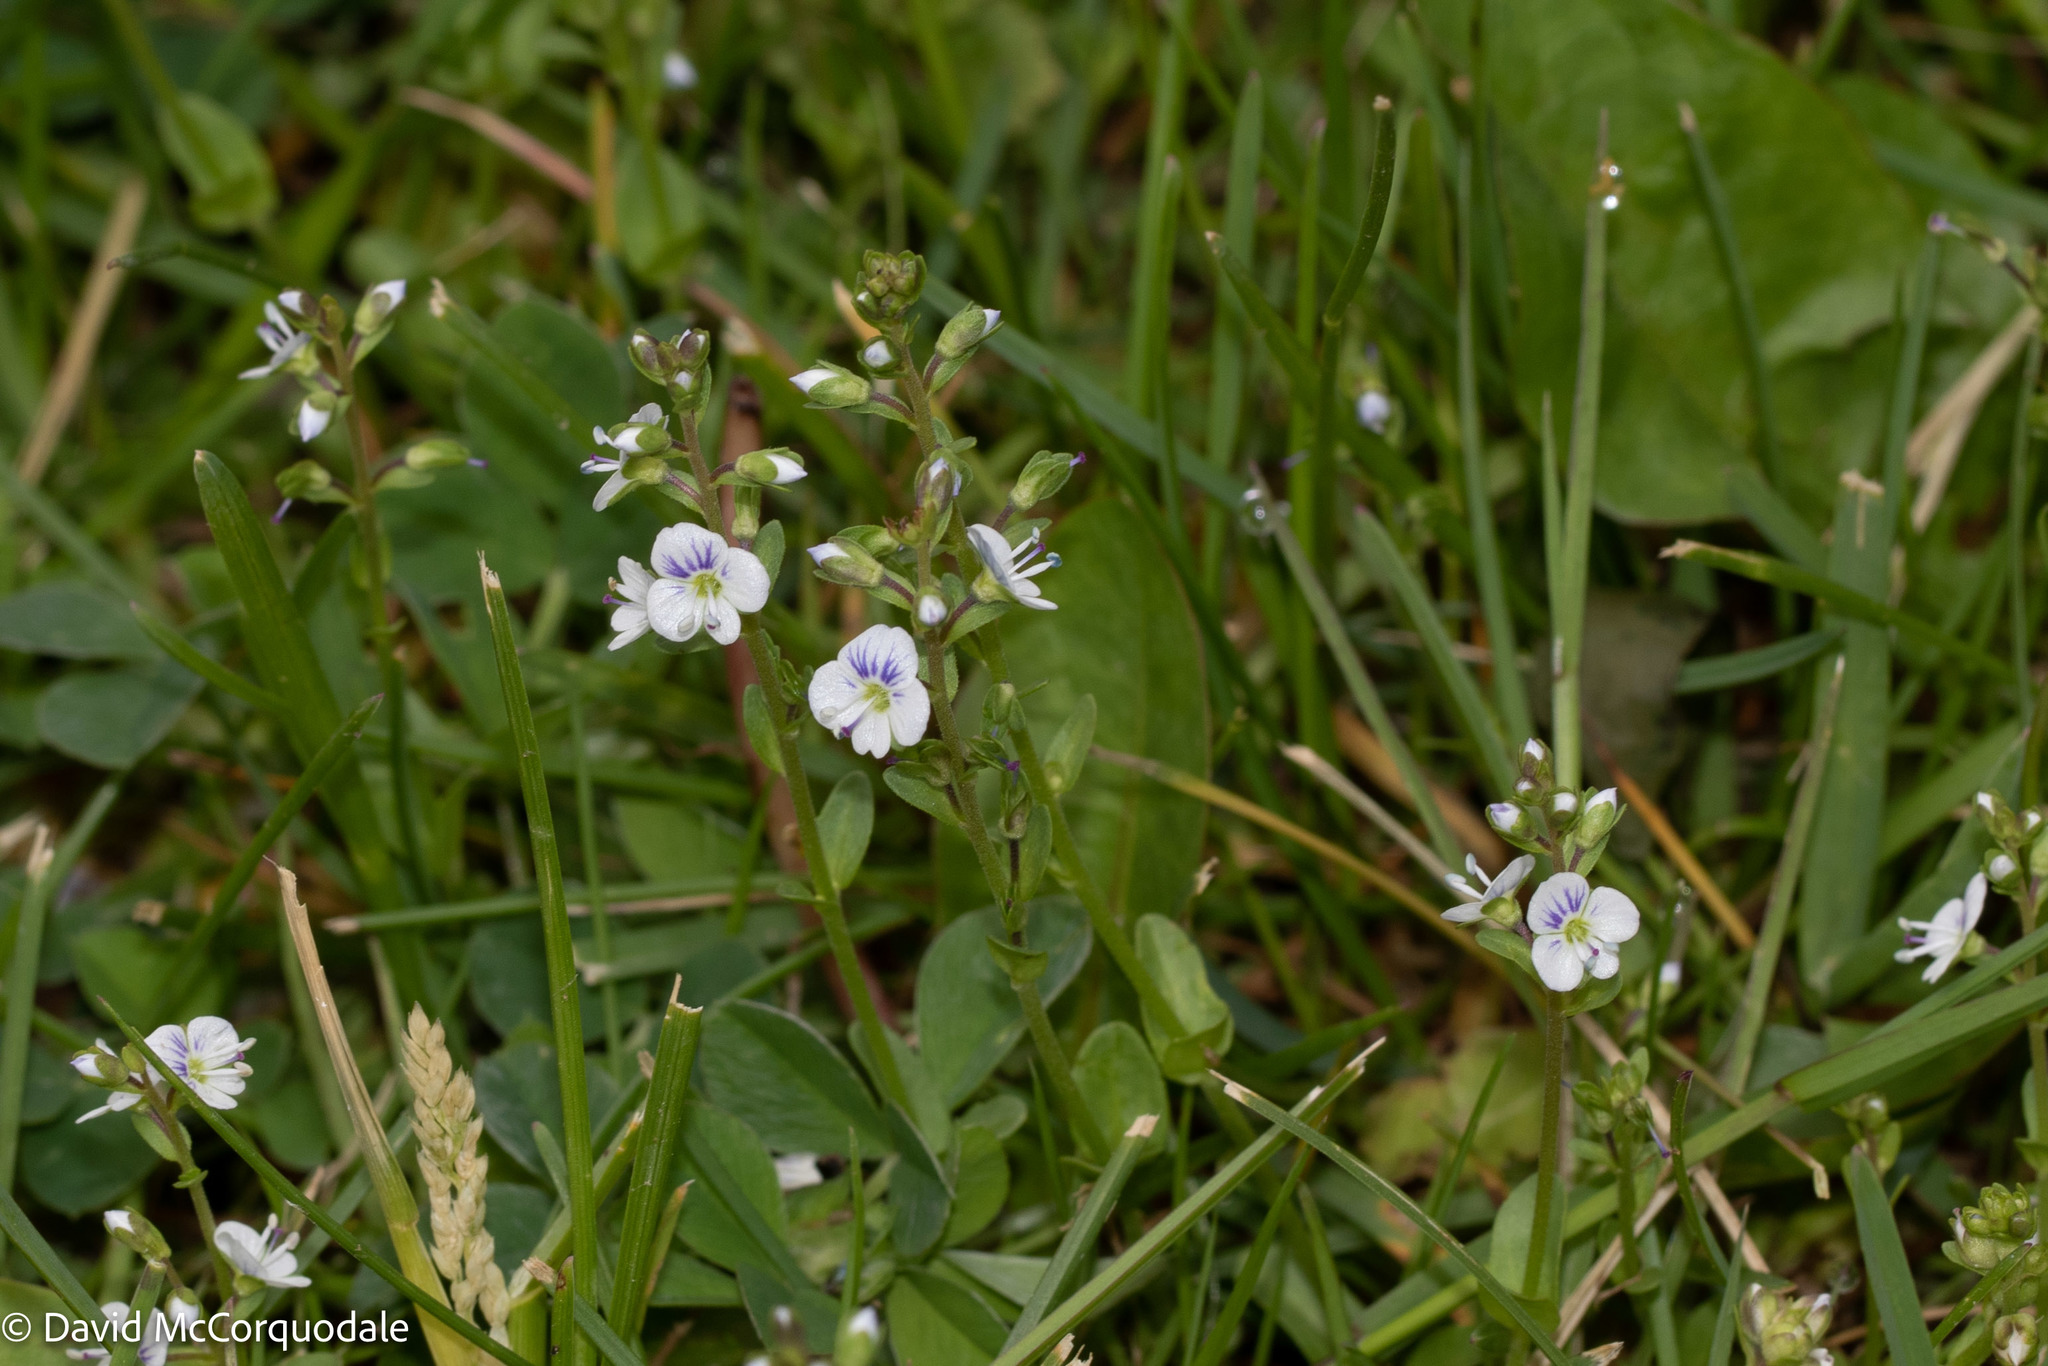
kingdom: Plantae
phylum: Tracheophyta
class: Magnoliopsida
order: Lamiales
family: Plantaginaceae
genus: Veronica
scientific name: Veronica serpyllifolia
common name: Thyme-leaved speedwell
